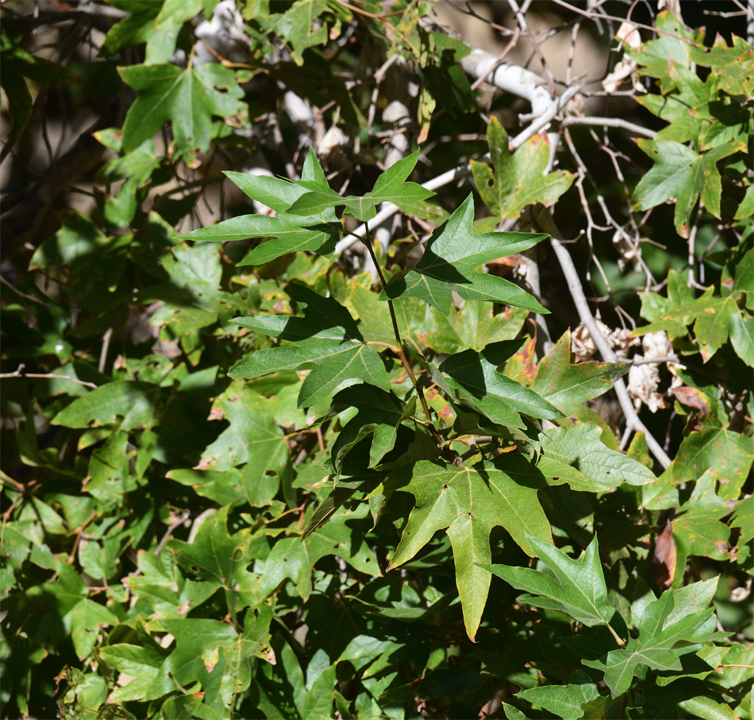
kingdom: Plantae
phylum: Tracheophyta
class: Magnoliopsida
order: Proteales
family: Platanaceae
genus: Platanus
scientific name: Platanus racemosa
